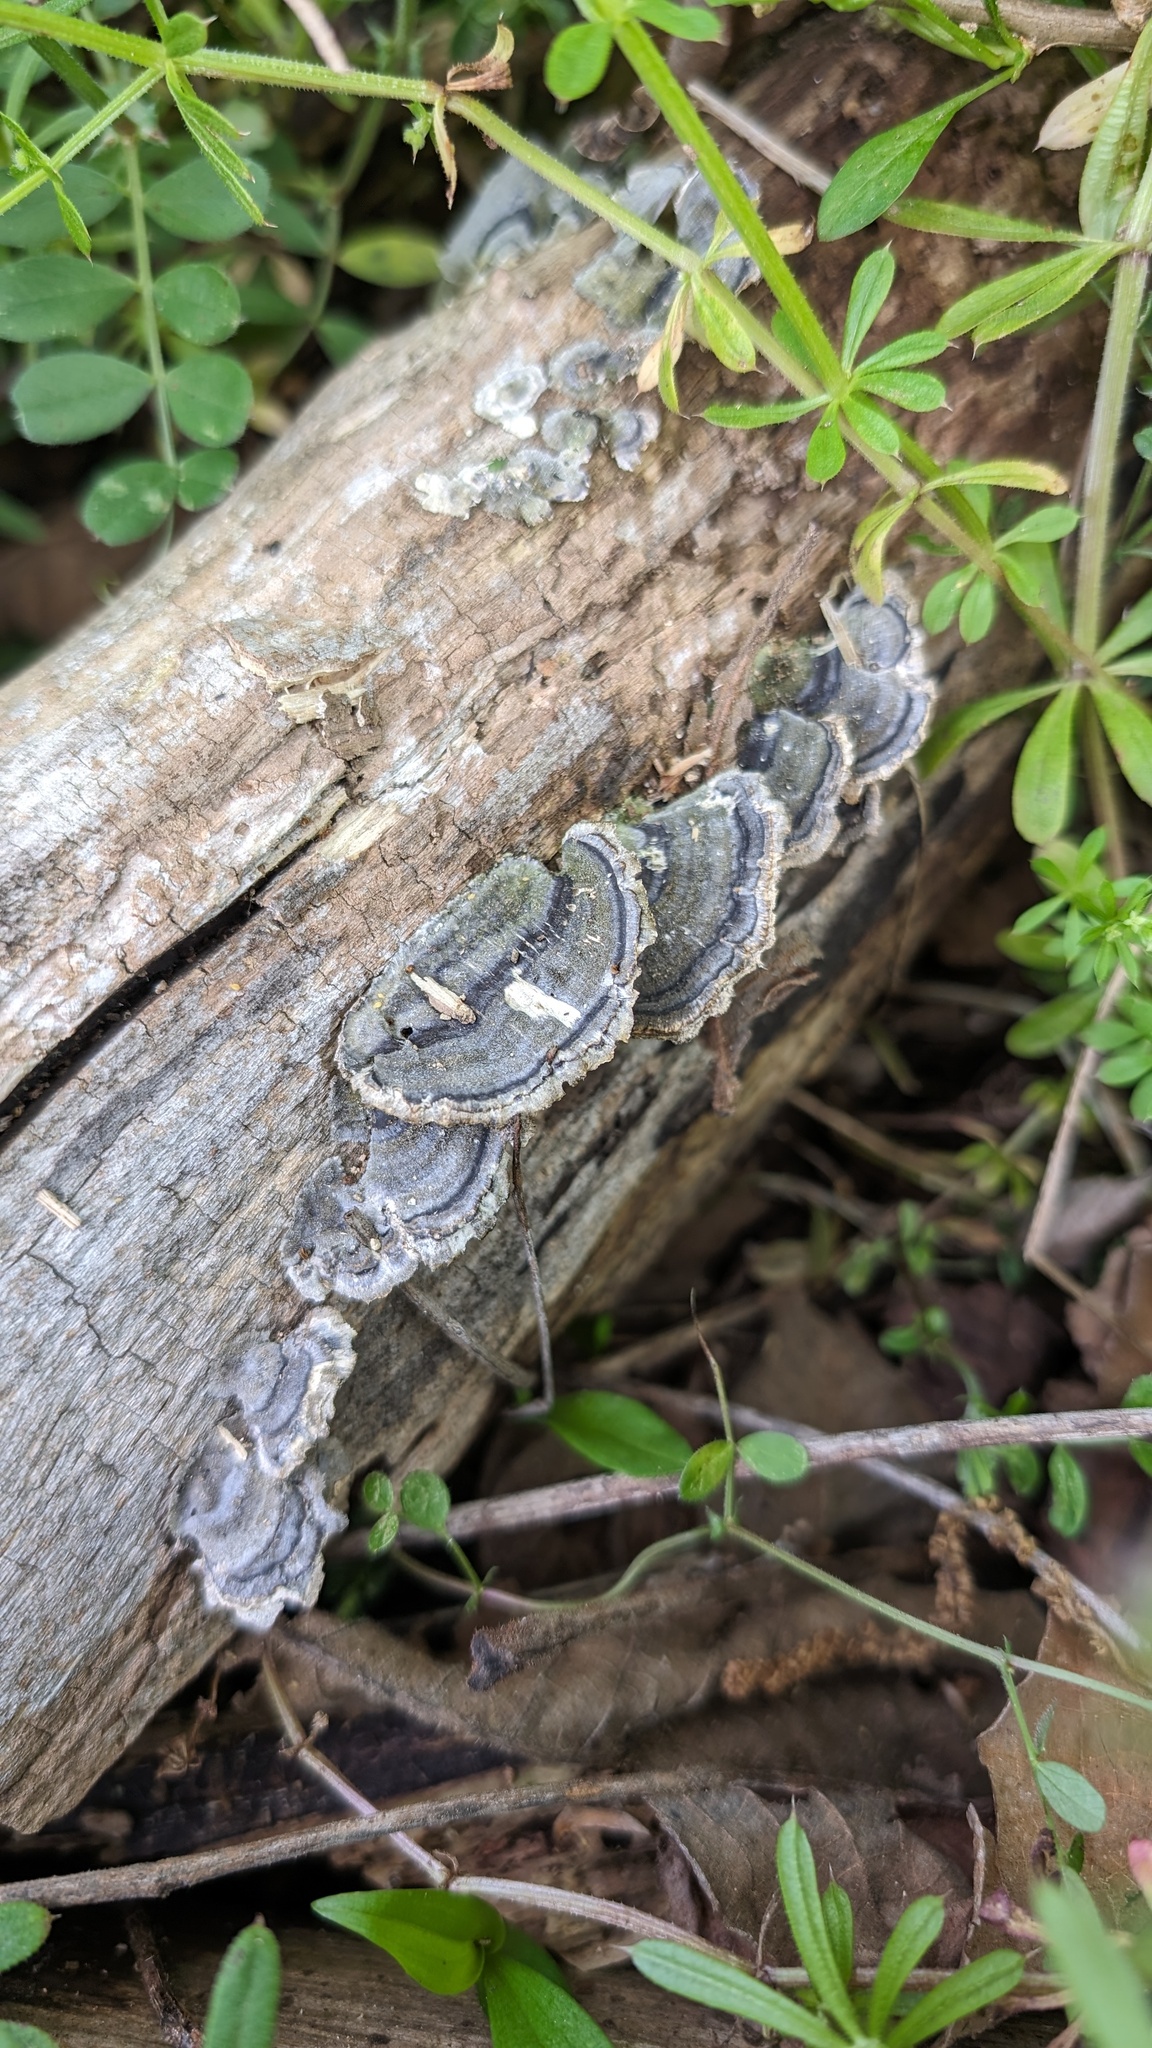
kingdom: Fungi
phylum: Basidiomycota
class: Agaricomycetes
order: Polyporales
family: Polyporaceae
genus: Trametes
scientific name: Trametes versicolor
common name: Turkeytail
